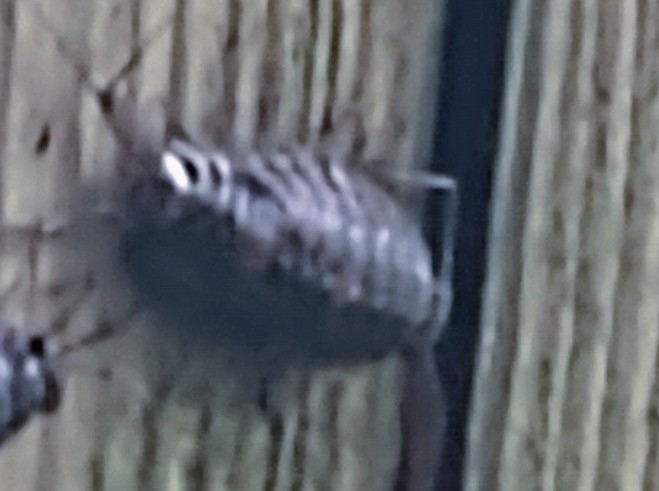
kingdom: Animalia
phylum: Arthropoda
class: Malacostraca
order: Isopoda
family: Ligiidae
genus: Ligia
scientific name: Ligia exotica
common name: Wharf roach
